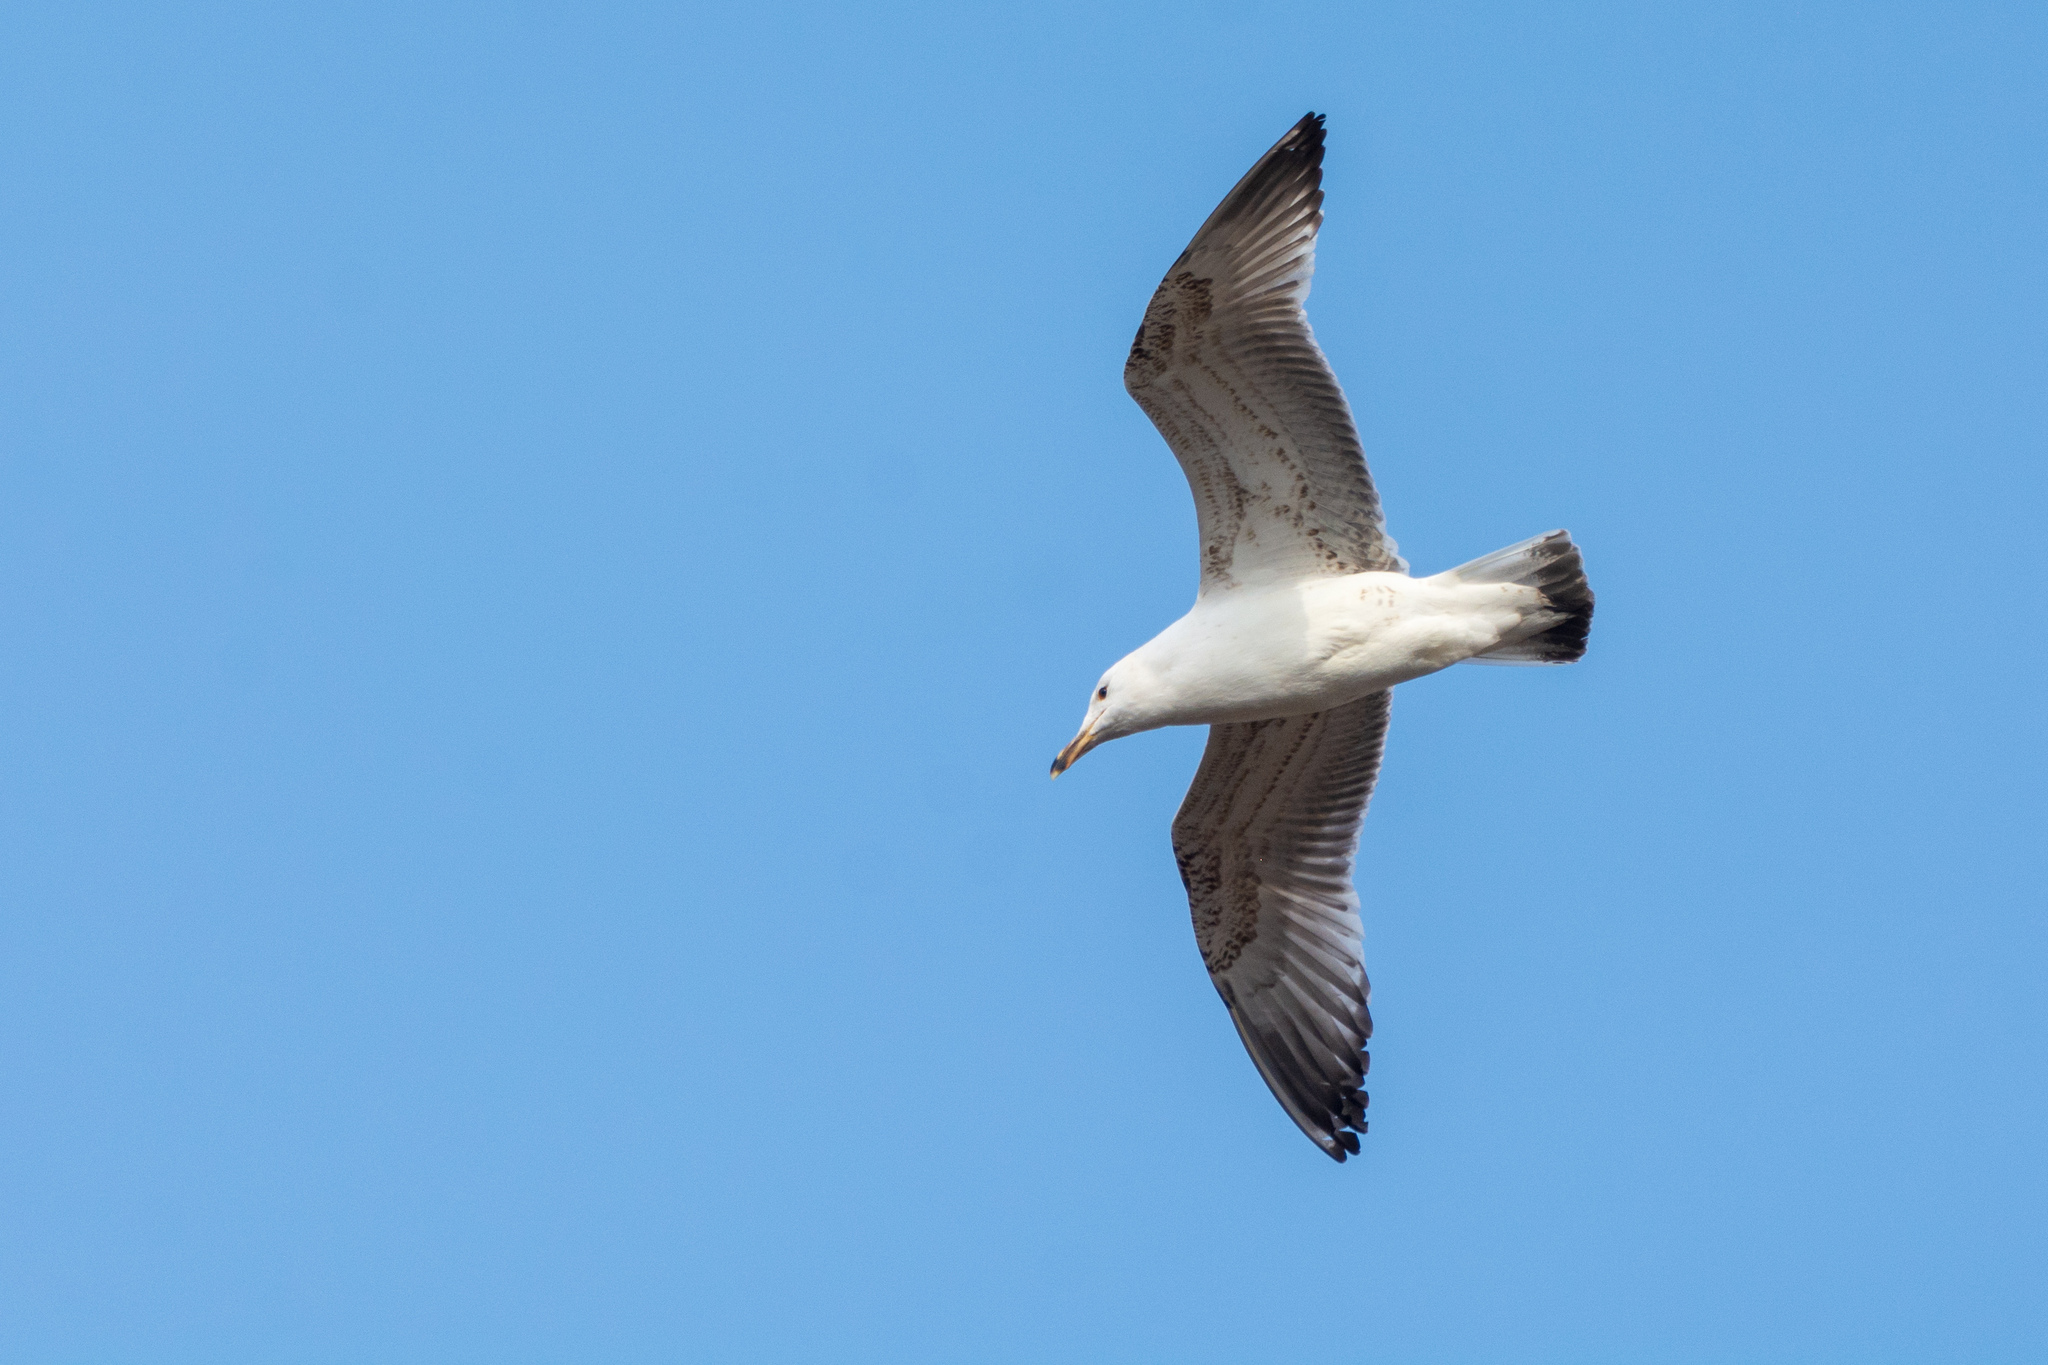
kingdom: Animalia
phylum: Chordata
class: Aves
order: Charadriiformes
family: Laridae
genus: Larus
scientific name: Larus cachinnans
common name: Caspian gull
